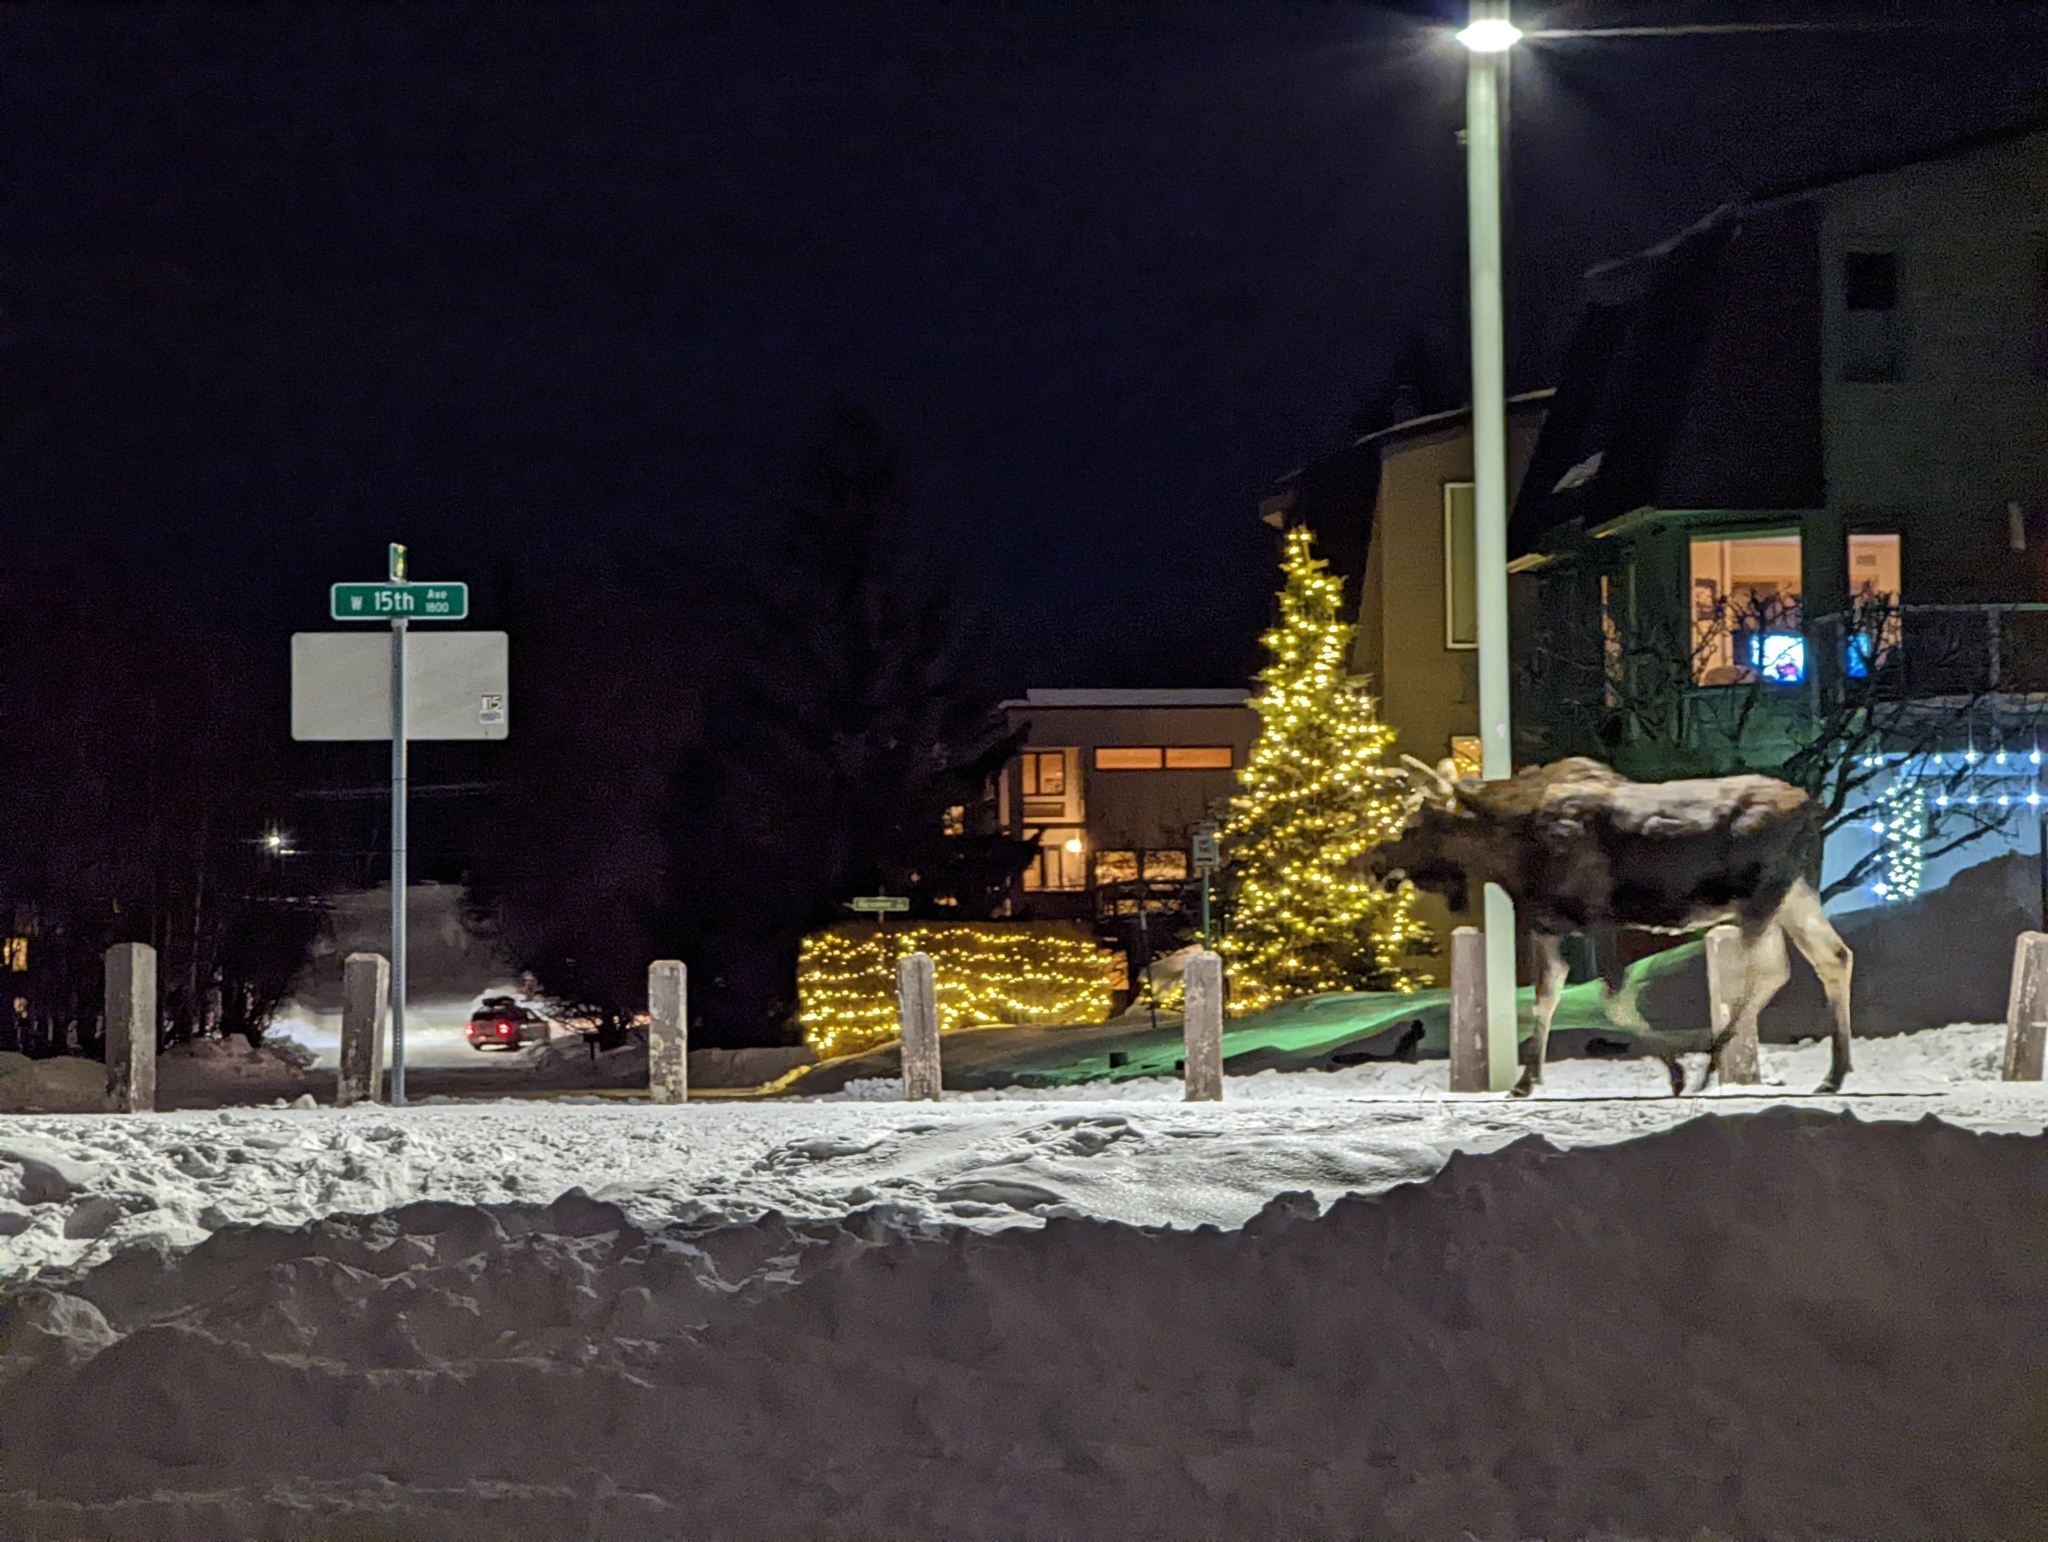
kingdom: Animalia
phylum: Chordata
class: Mammalia
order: Artiodactyla
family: Cervidae
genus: Alces
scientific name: Alces alces
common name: Moose
